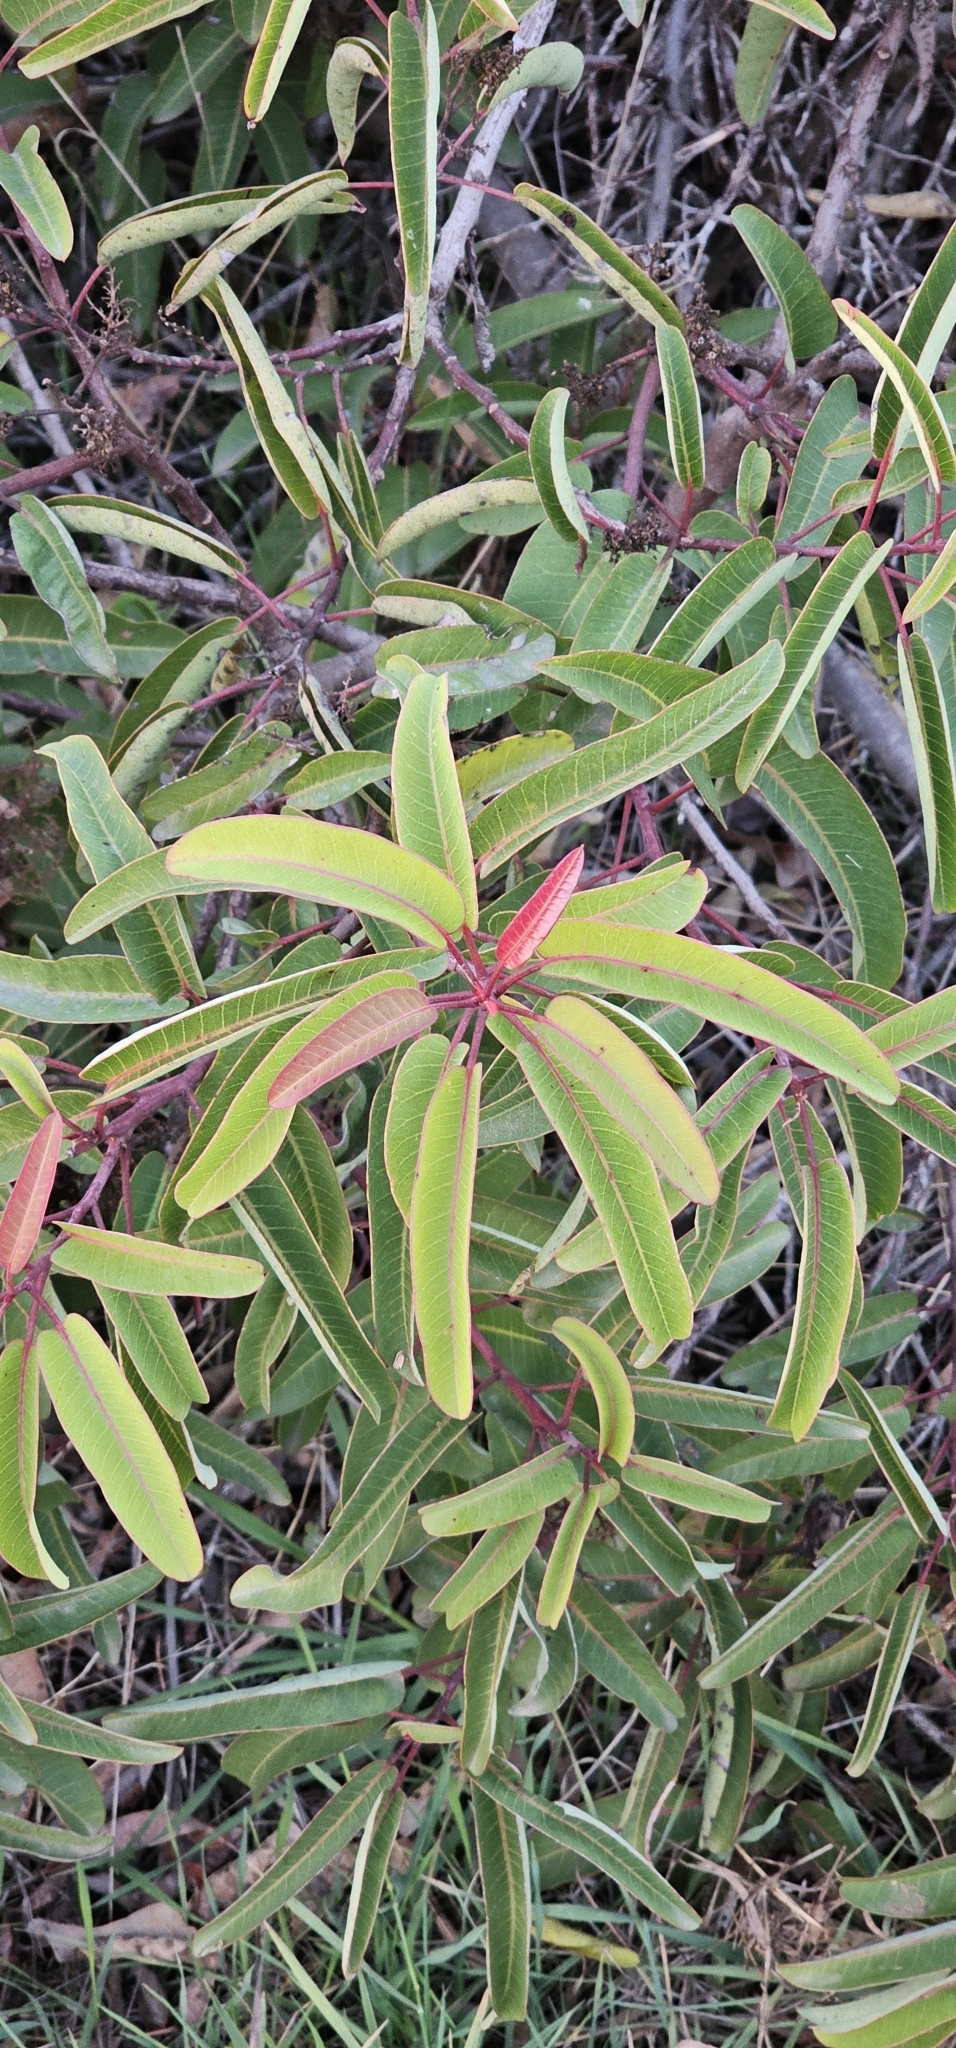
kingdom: Plantae
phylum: Tracheophyta
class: Magnoliopsida
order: Sapindales
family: Anacardiaceae
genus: Malosma
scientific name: Malosma laurina
